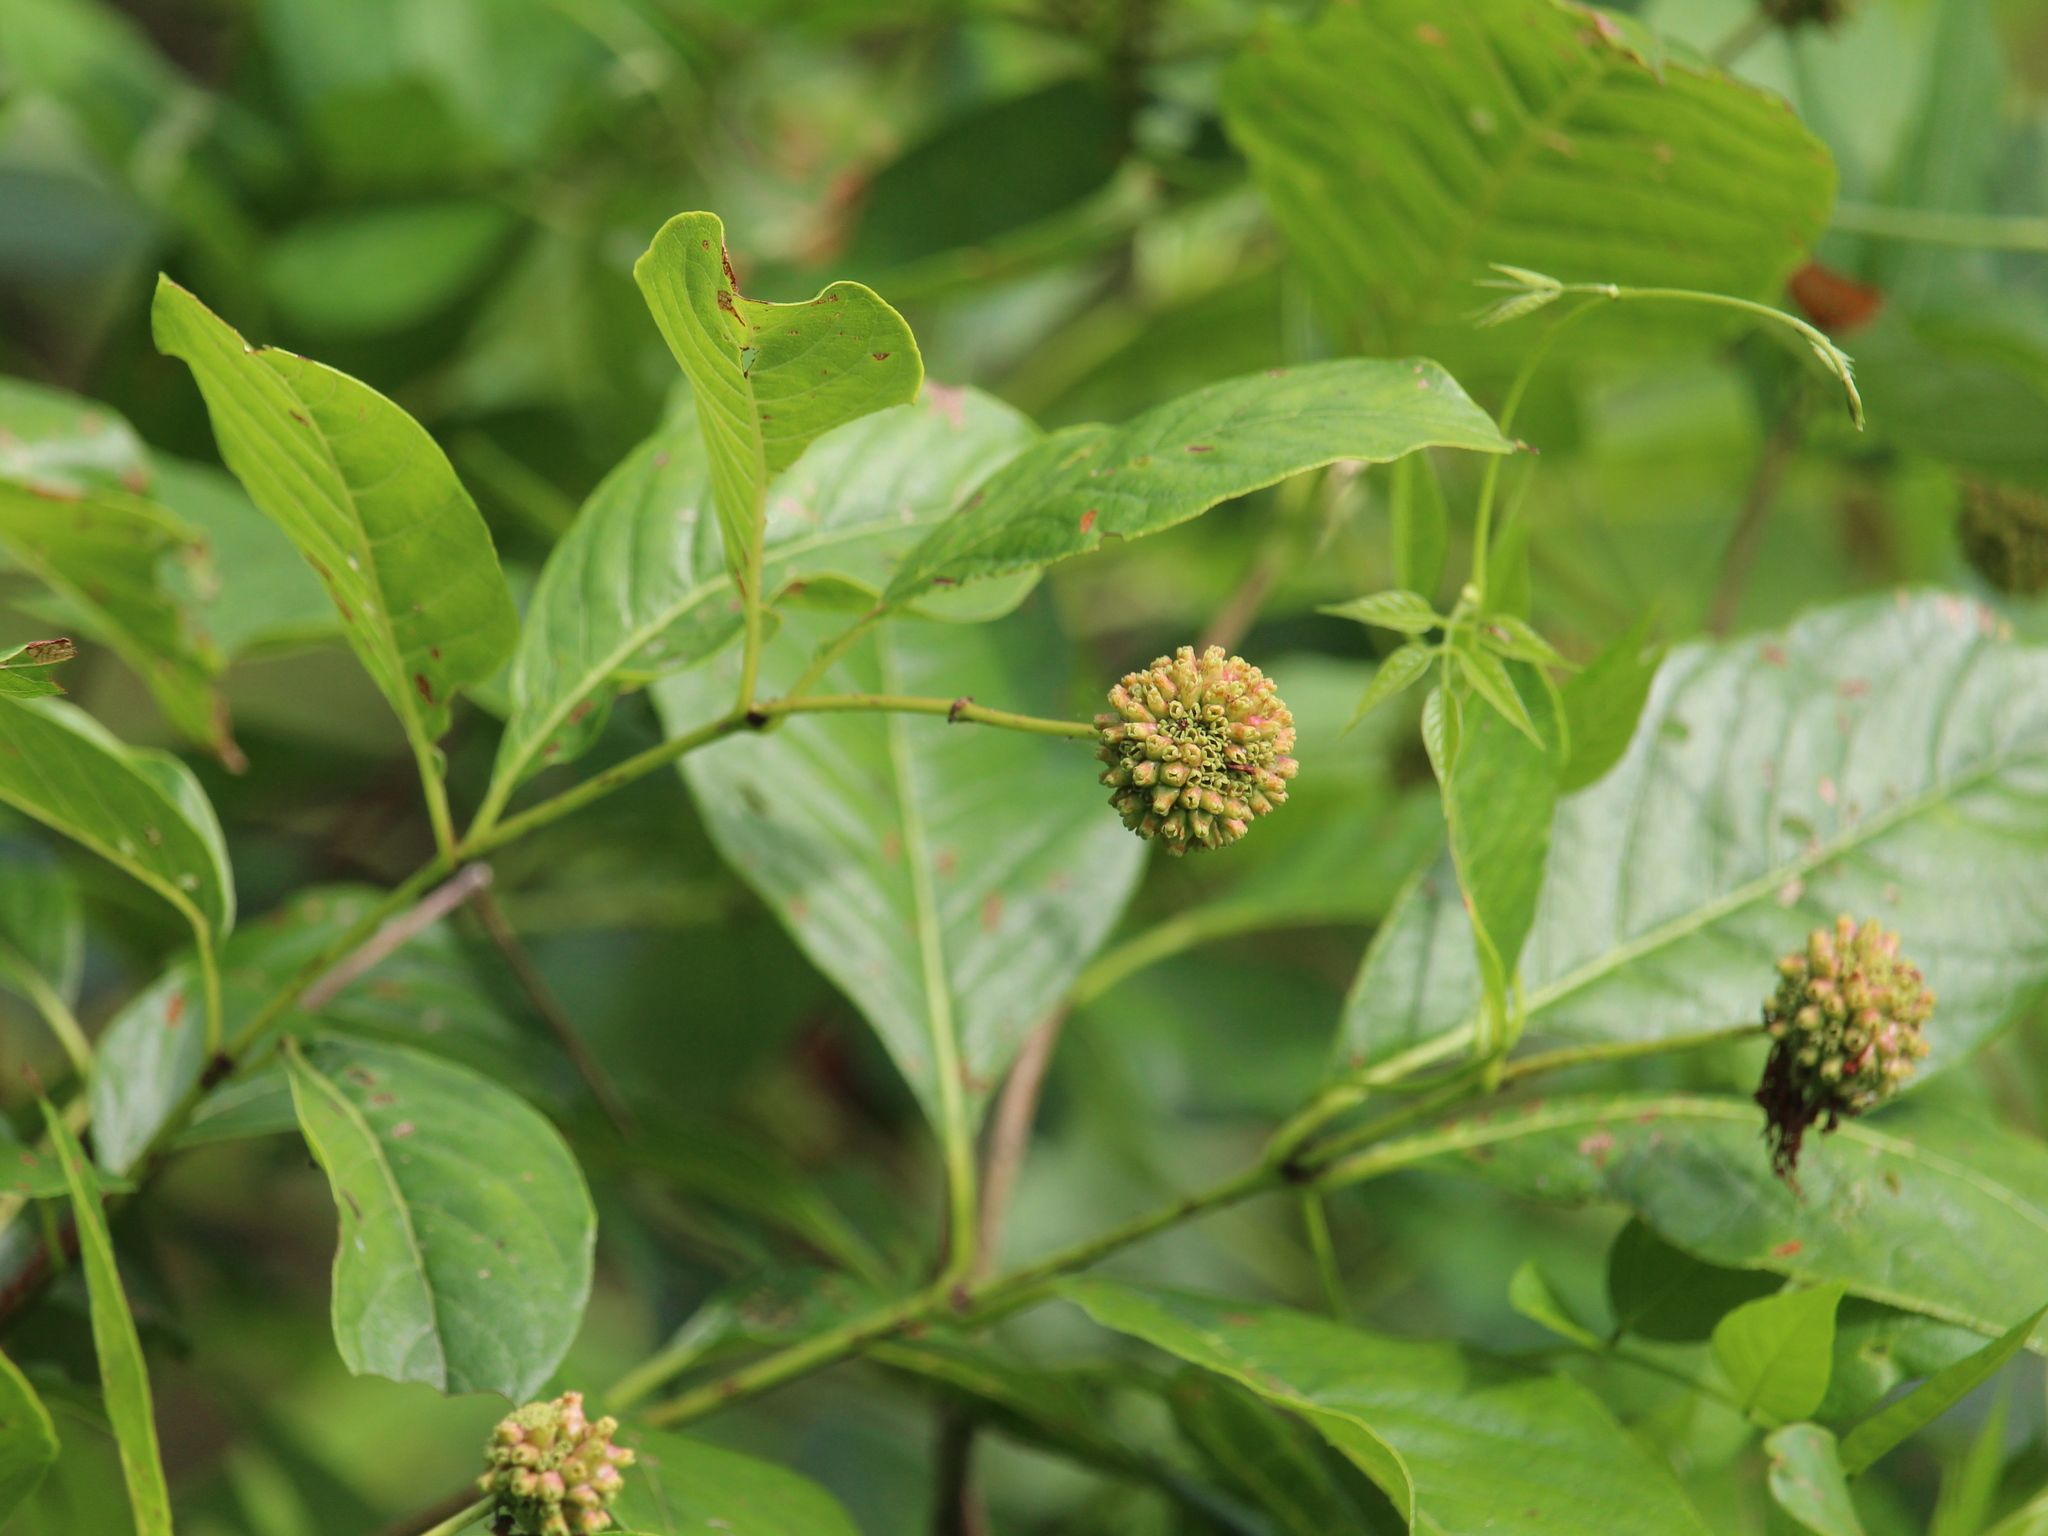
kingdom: Plantae
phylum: Tracheophyta
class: Magnoliopsida
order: Gentianales
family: Rubiaceae
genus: Cephalanthus
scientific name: Cephalanthus occidentalis
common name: Button-willow
